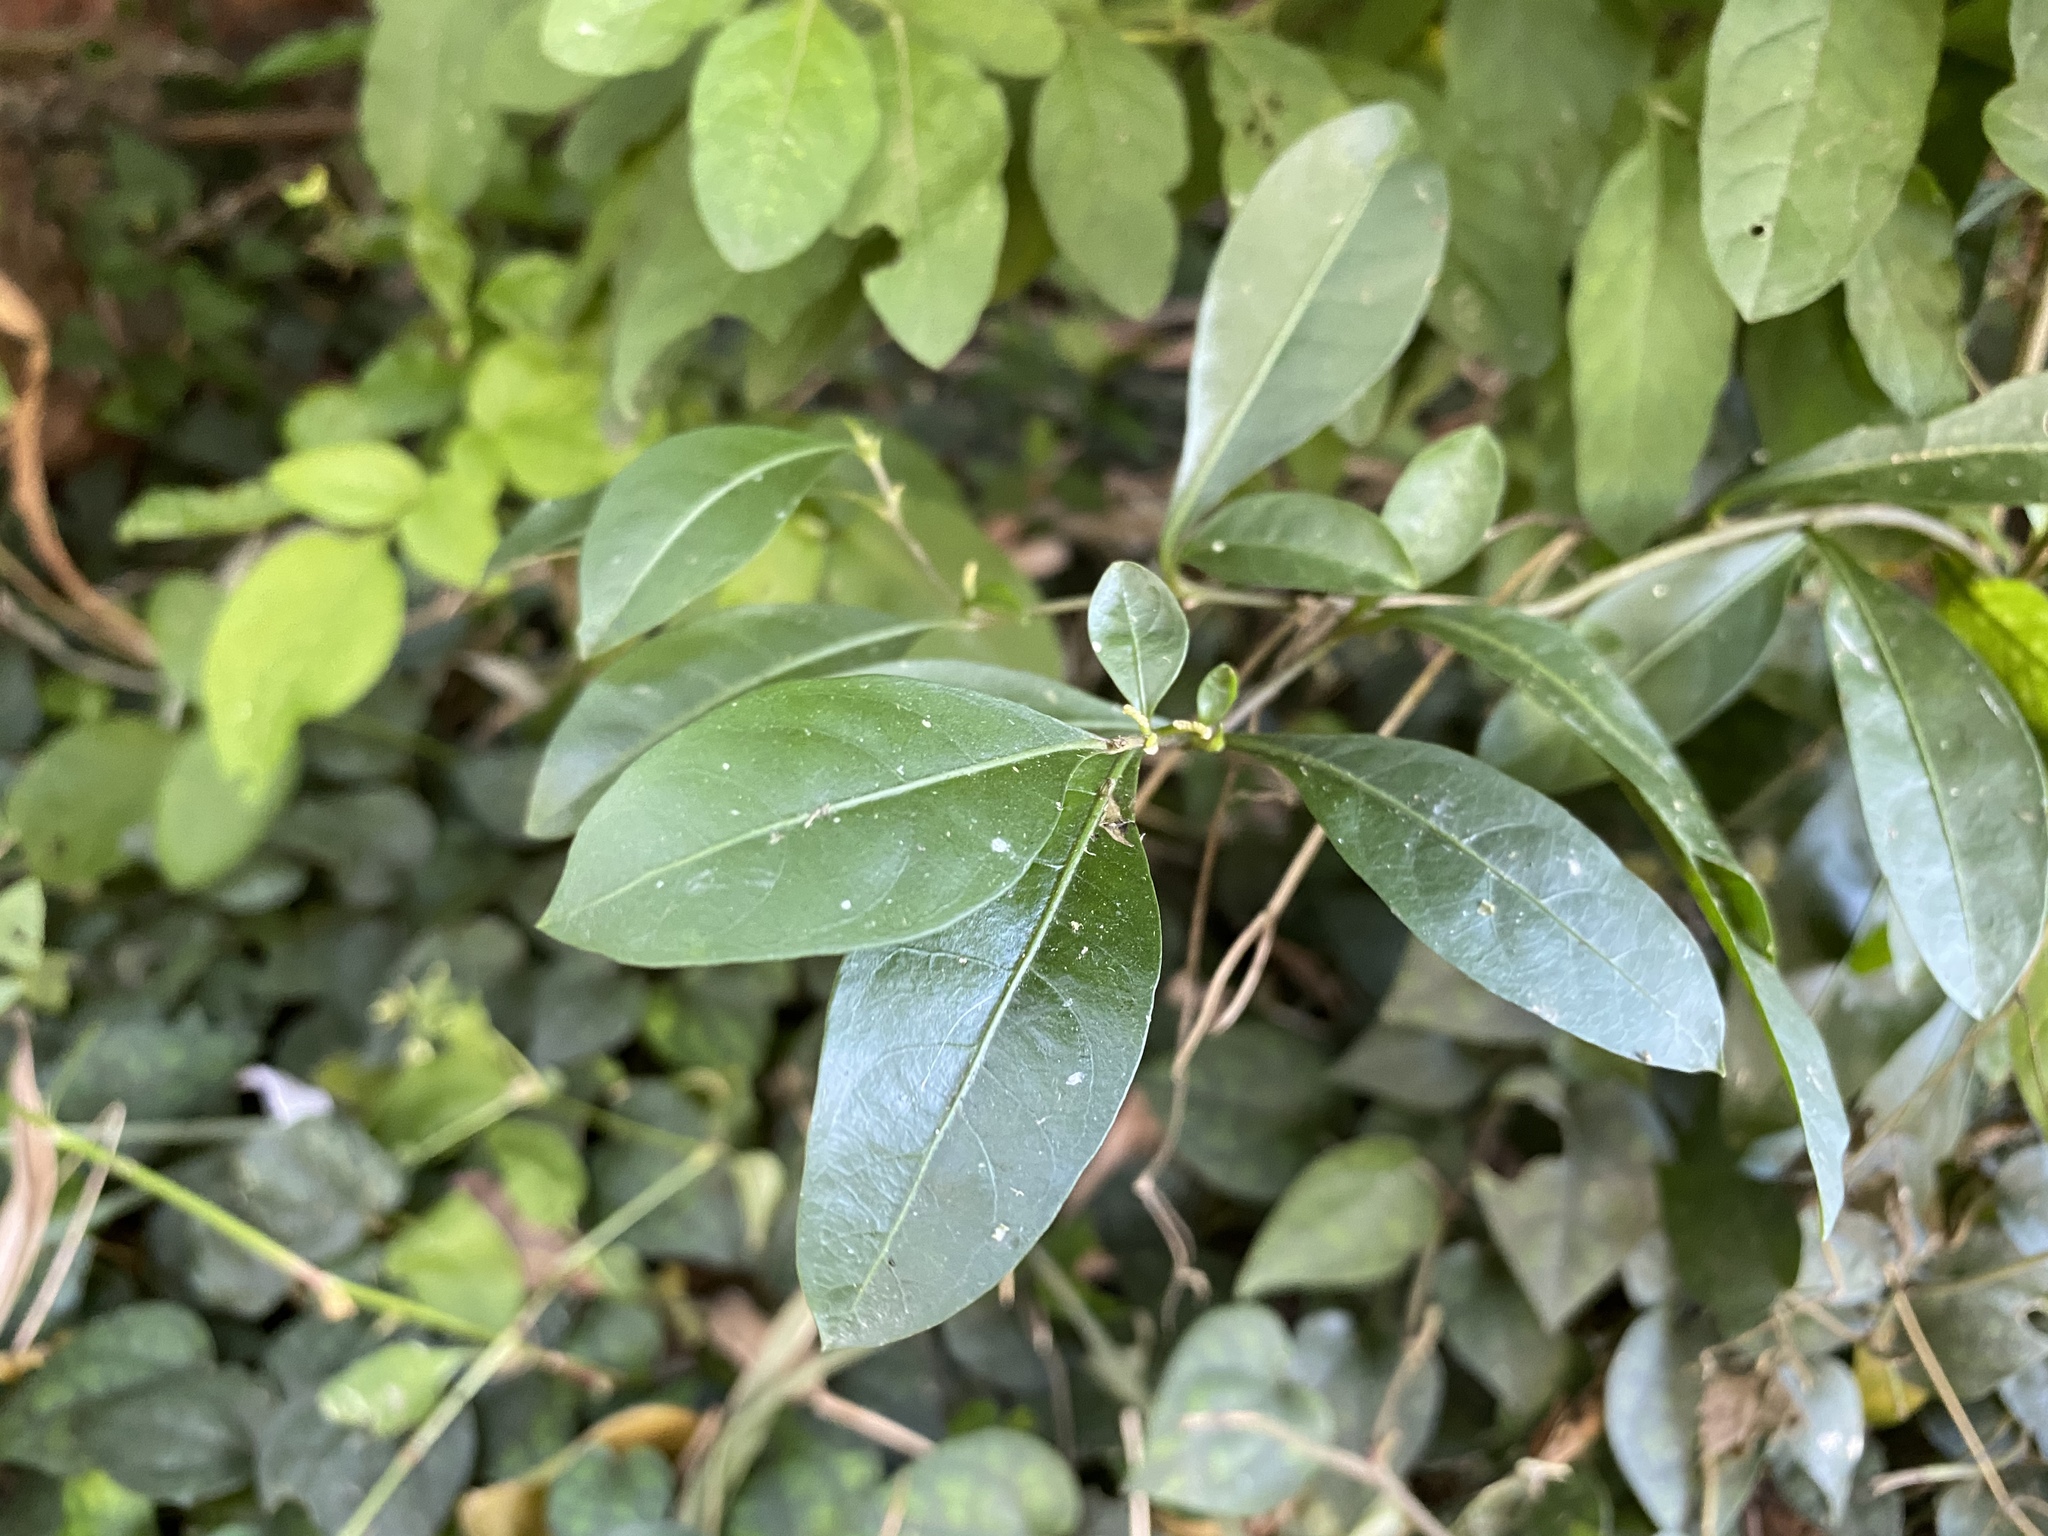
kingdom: Plantae
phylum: Tracheophyta
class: Magnoliopsida
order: Solanales
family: Solanaceae
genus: Solanum
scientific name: Solanum diphyllum
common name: Twoleaf nightshade
